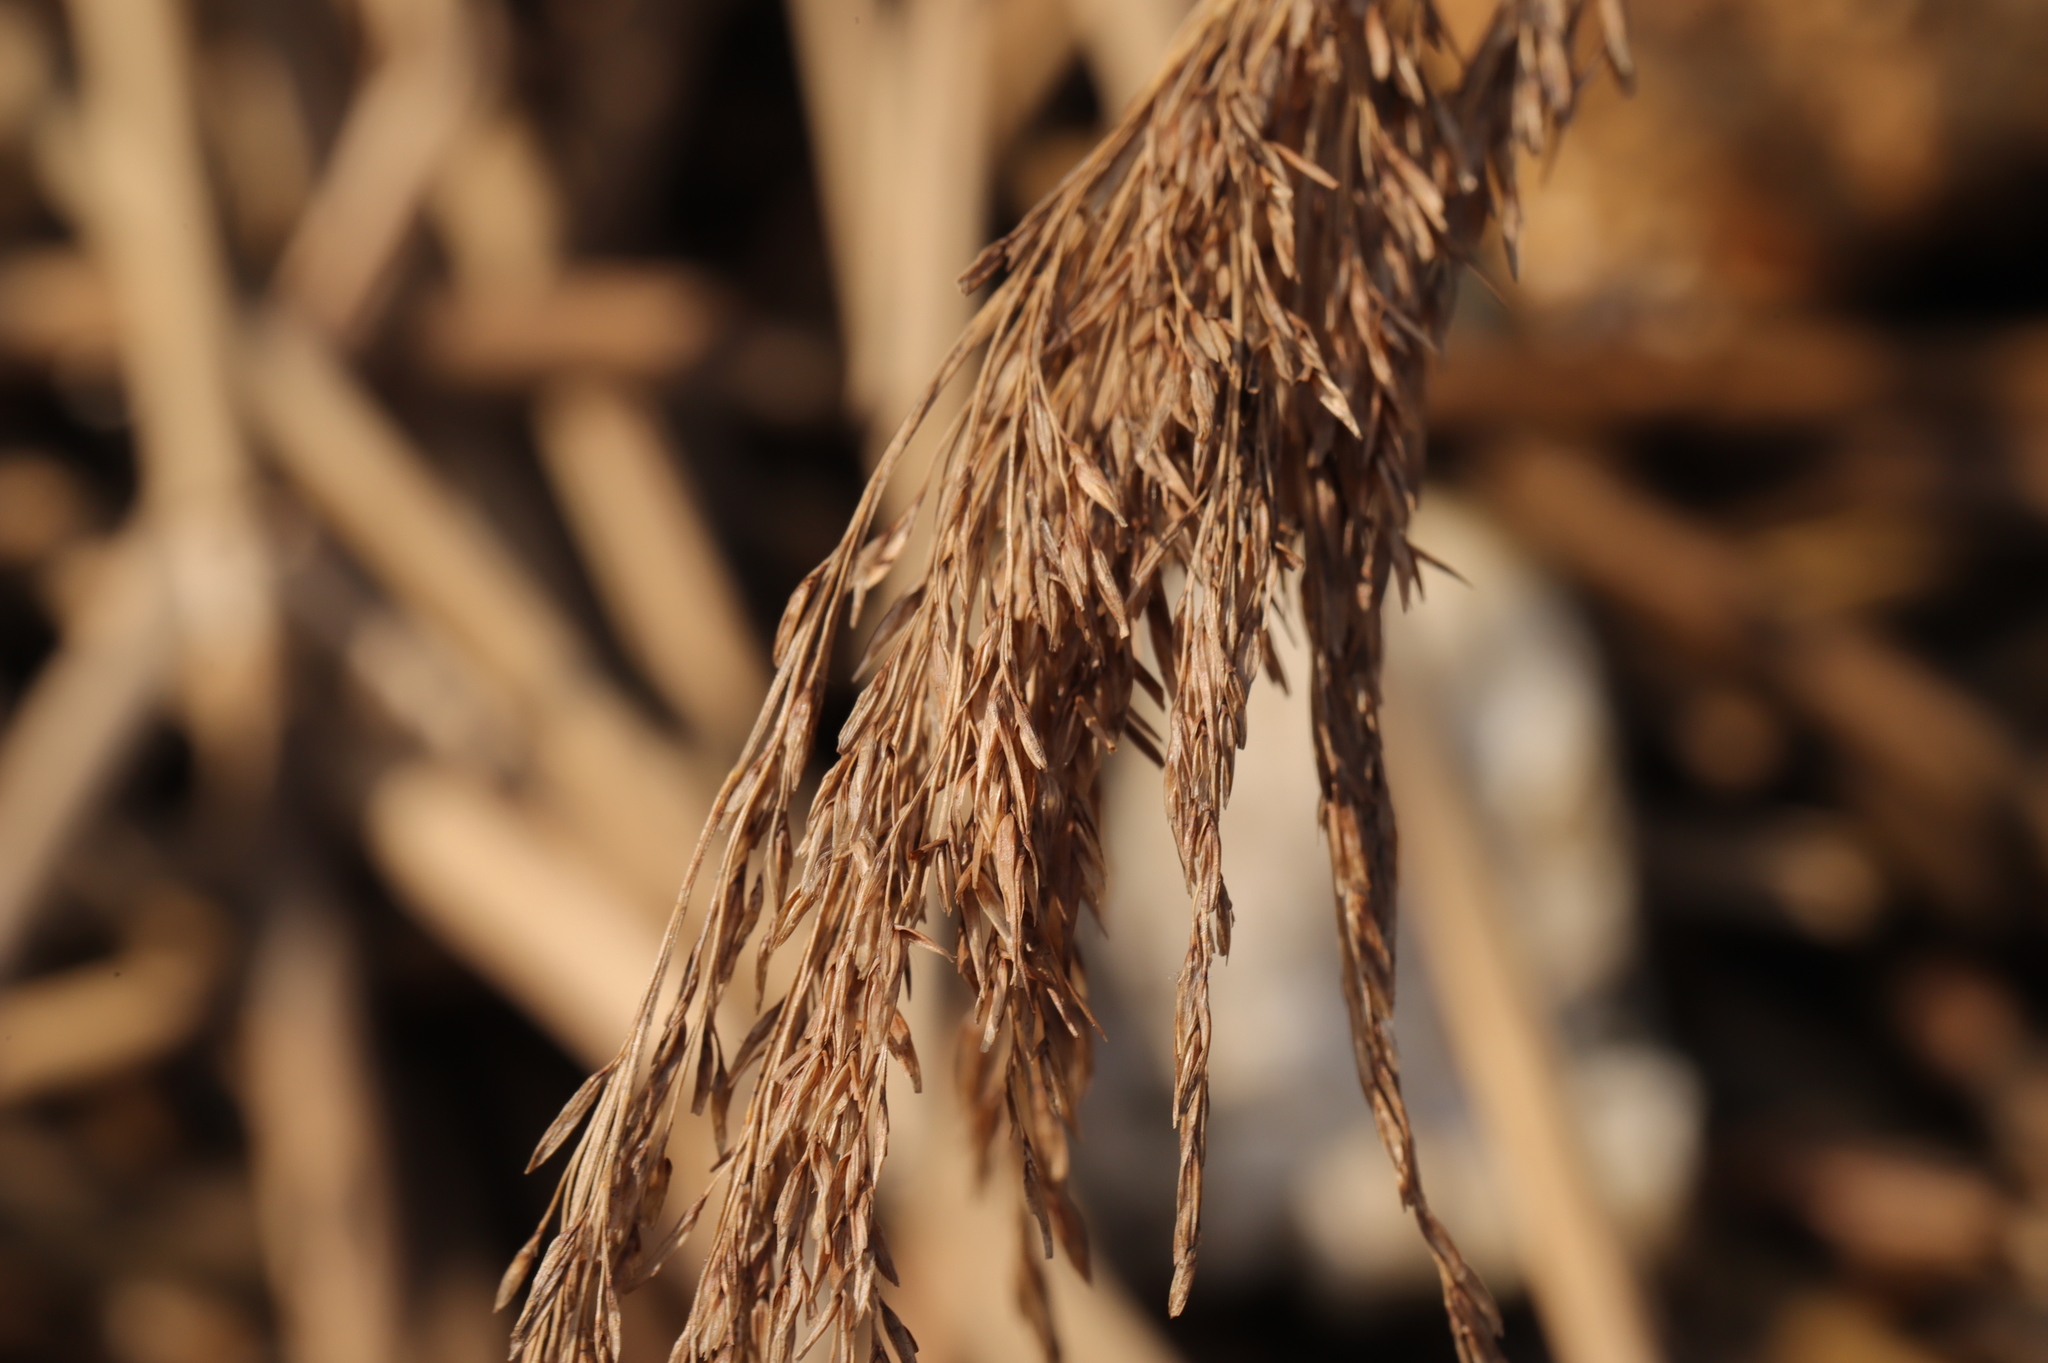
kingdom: Plantae
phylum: Tracheophyta
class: Liliopsida
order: Poales
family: Poaceae
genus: Phragmites
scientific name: Phragmites australis
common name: Common reed
